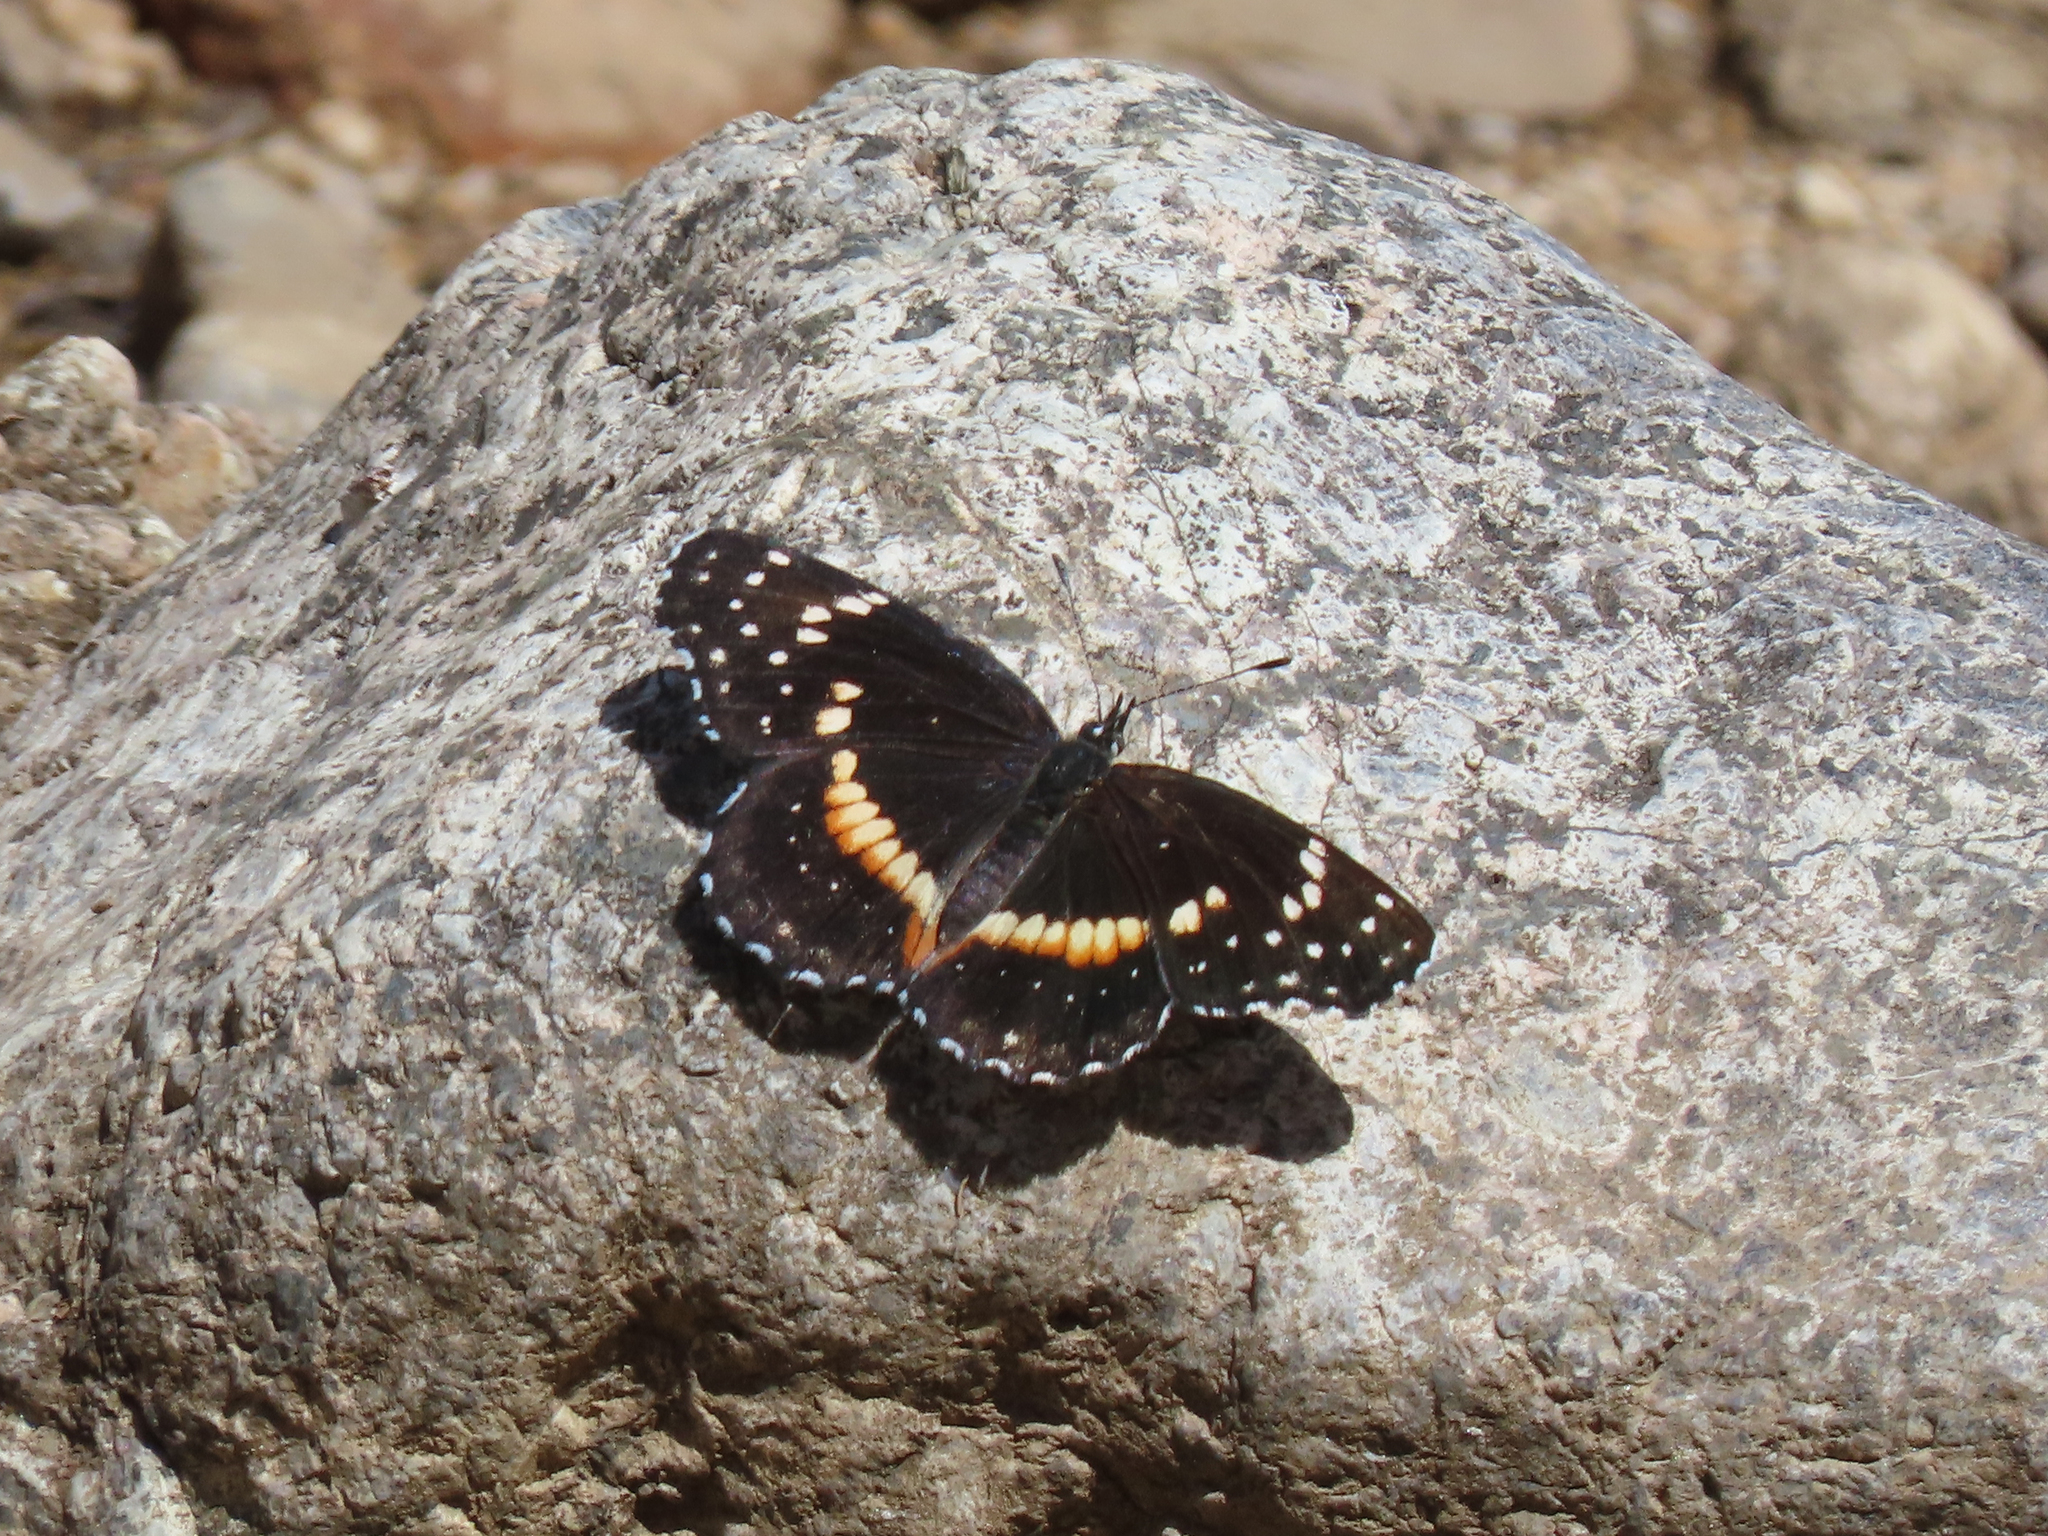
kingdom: Animalia
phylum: Arthropoda
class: Insecta
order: Lepidoptera
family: Nymphalidae
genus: Chlosyne
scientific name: Chlosyne lacinia
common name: Bordered patch
